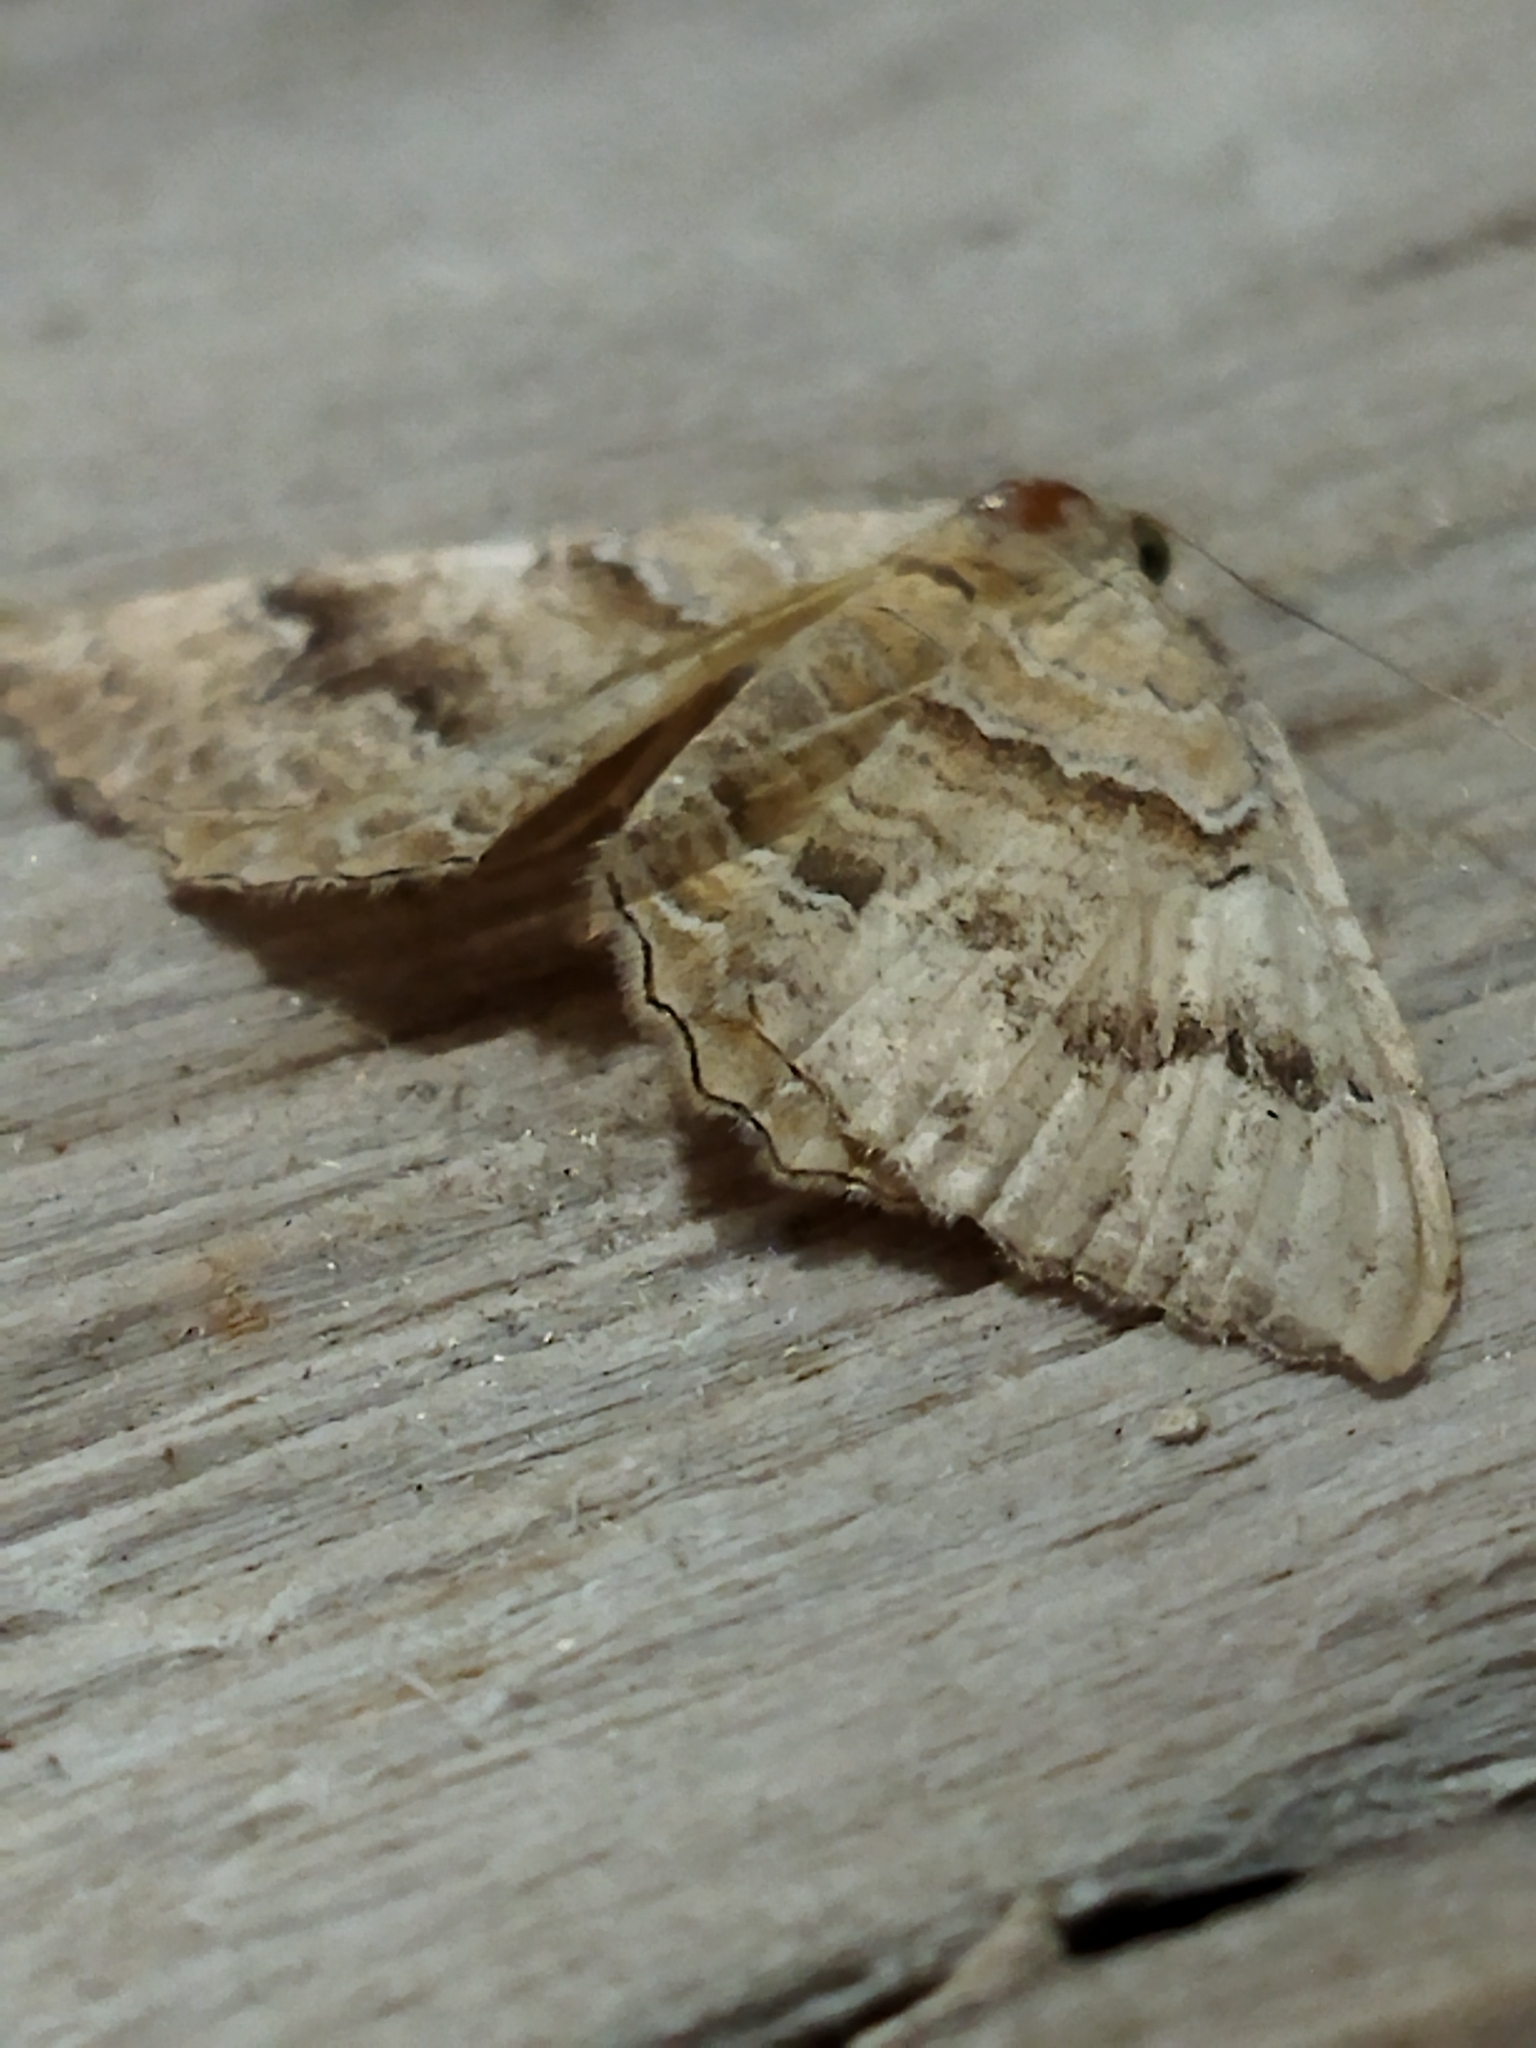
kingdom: Animalia
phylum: Arthropoda
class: Insecta
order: Lepidoptera
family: Geometridae
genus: Camptogramma
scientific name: Camptogramma bilineata
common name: Yellow shell
